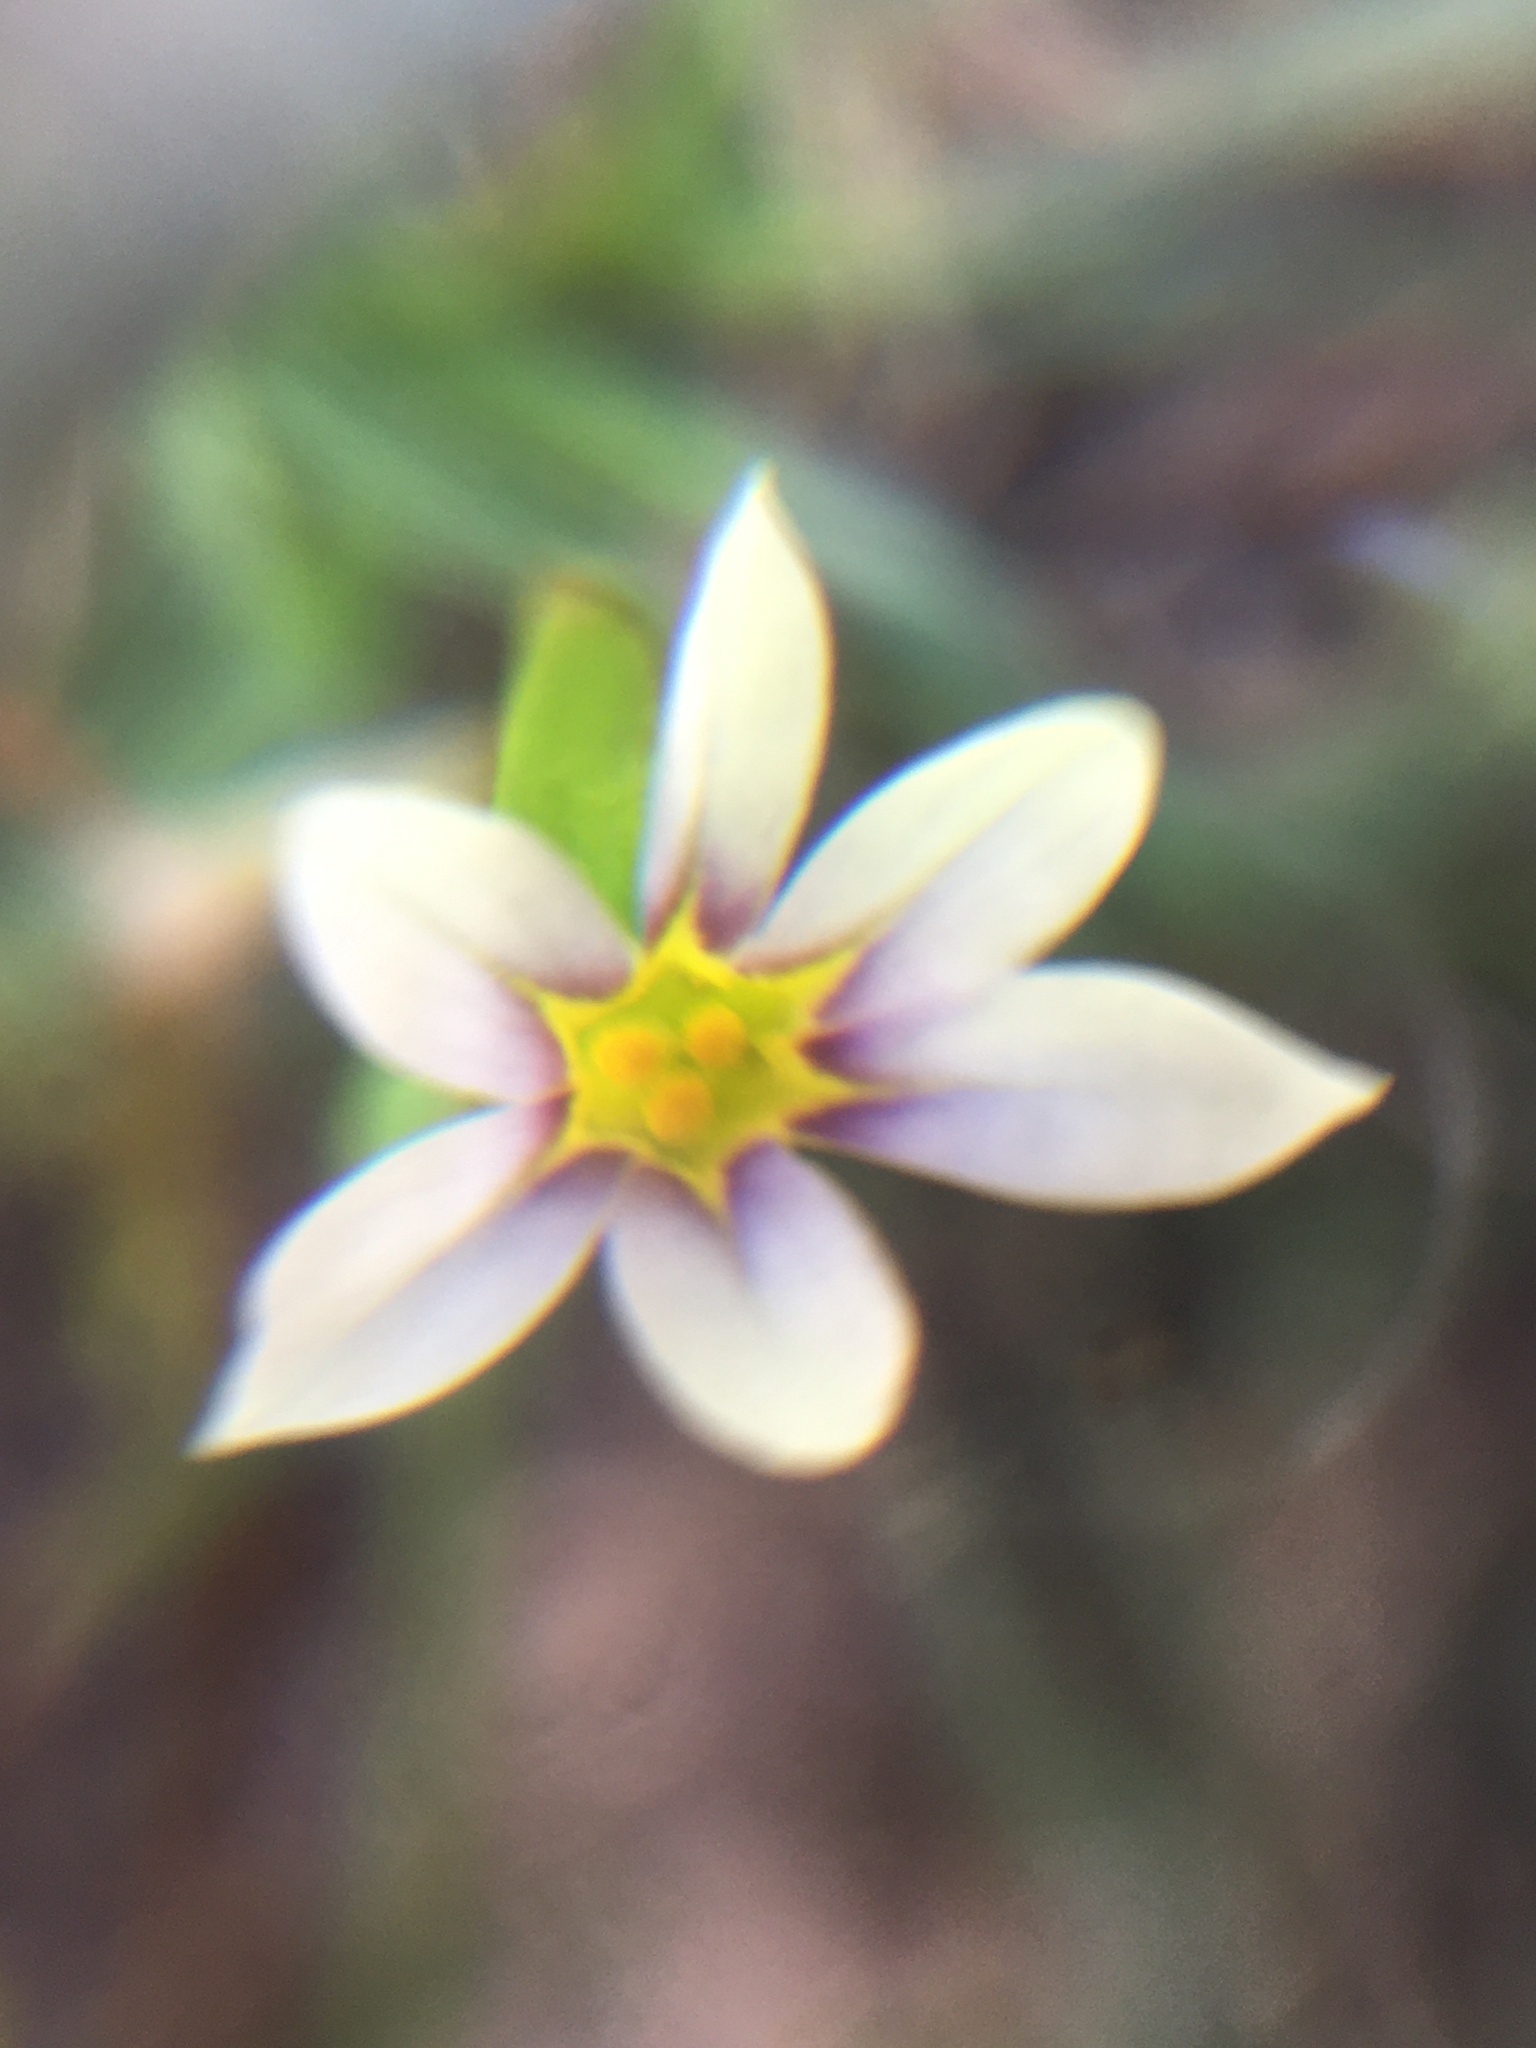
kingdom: Plantae
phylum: Tracheophyta
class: Liliopsida
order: Asparagales
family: Iridaceae
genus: Sisyrinchium
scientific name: Sisyrinchium micranthum
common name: Bermuda pigroot
